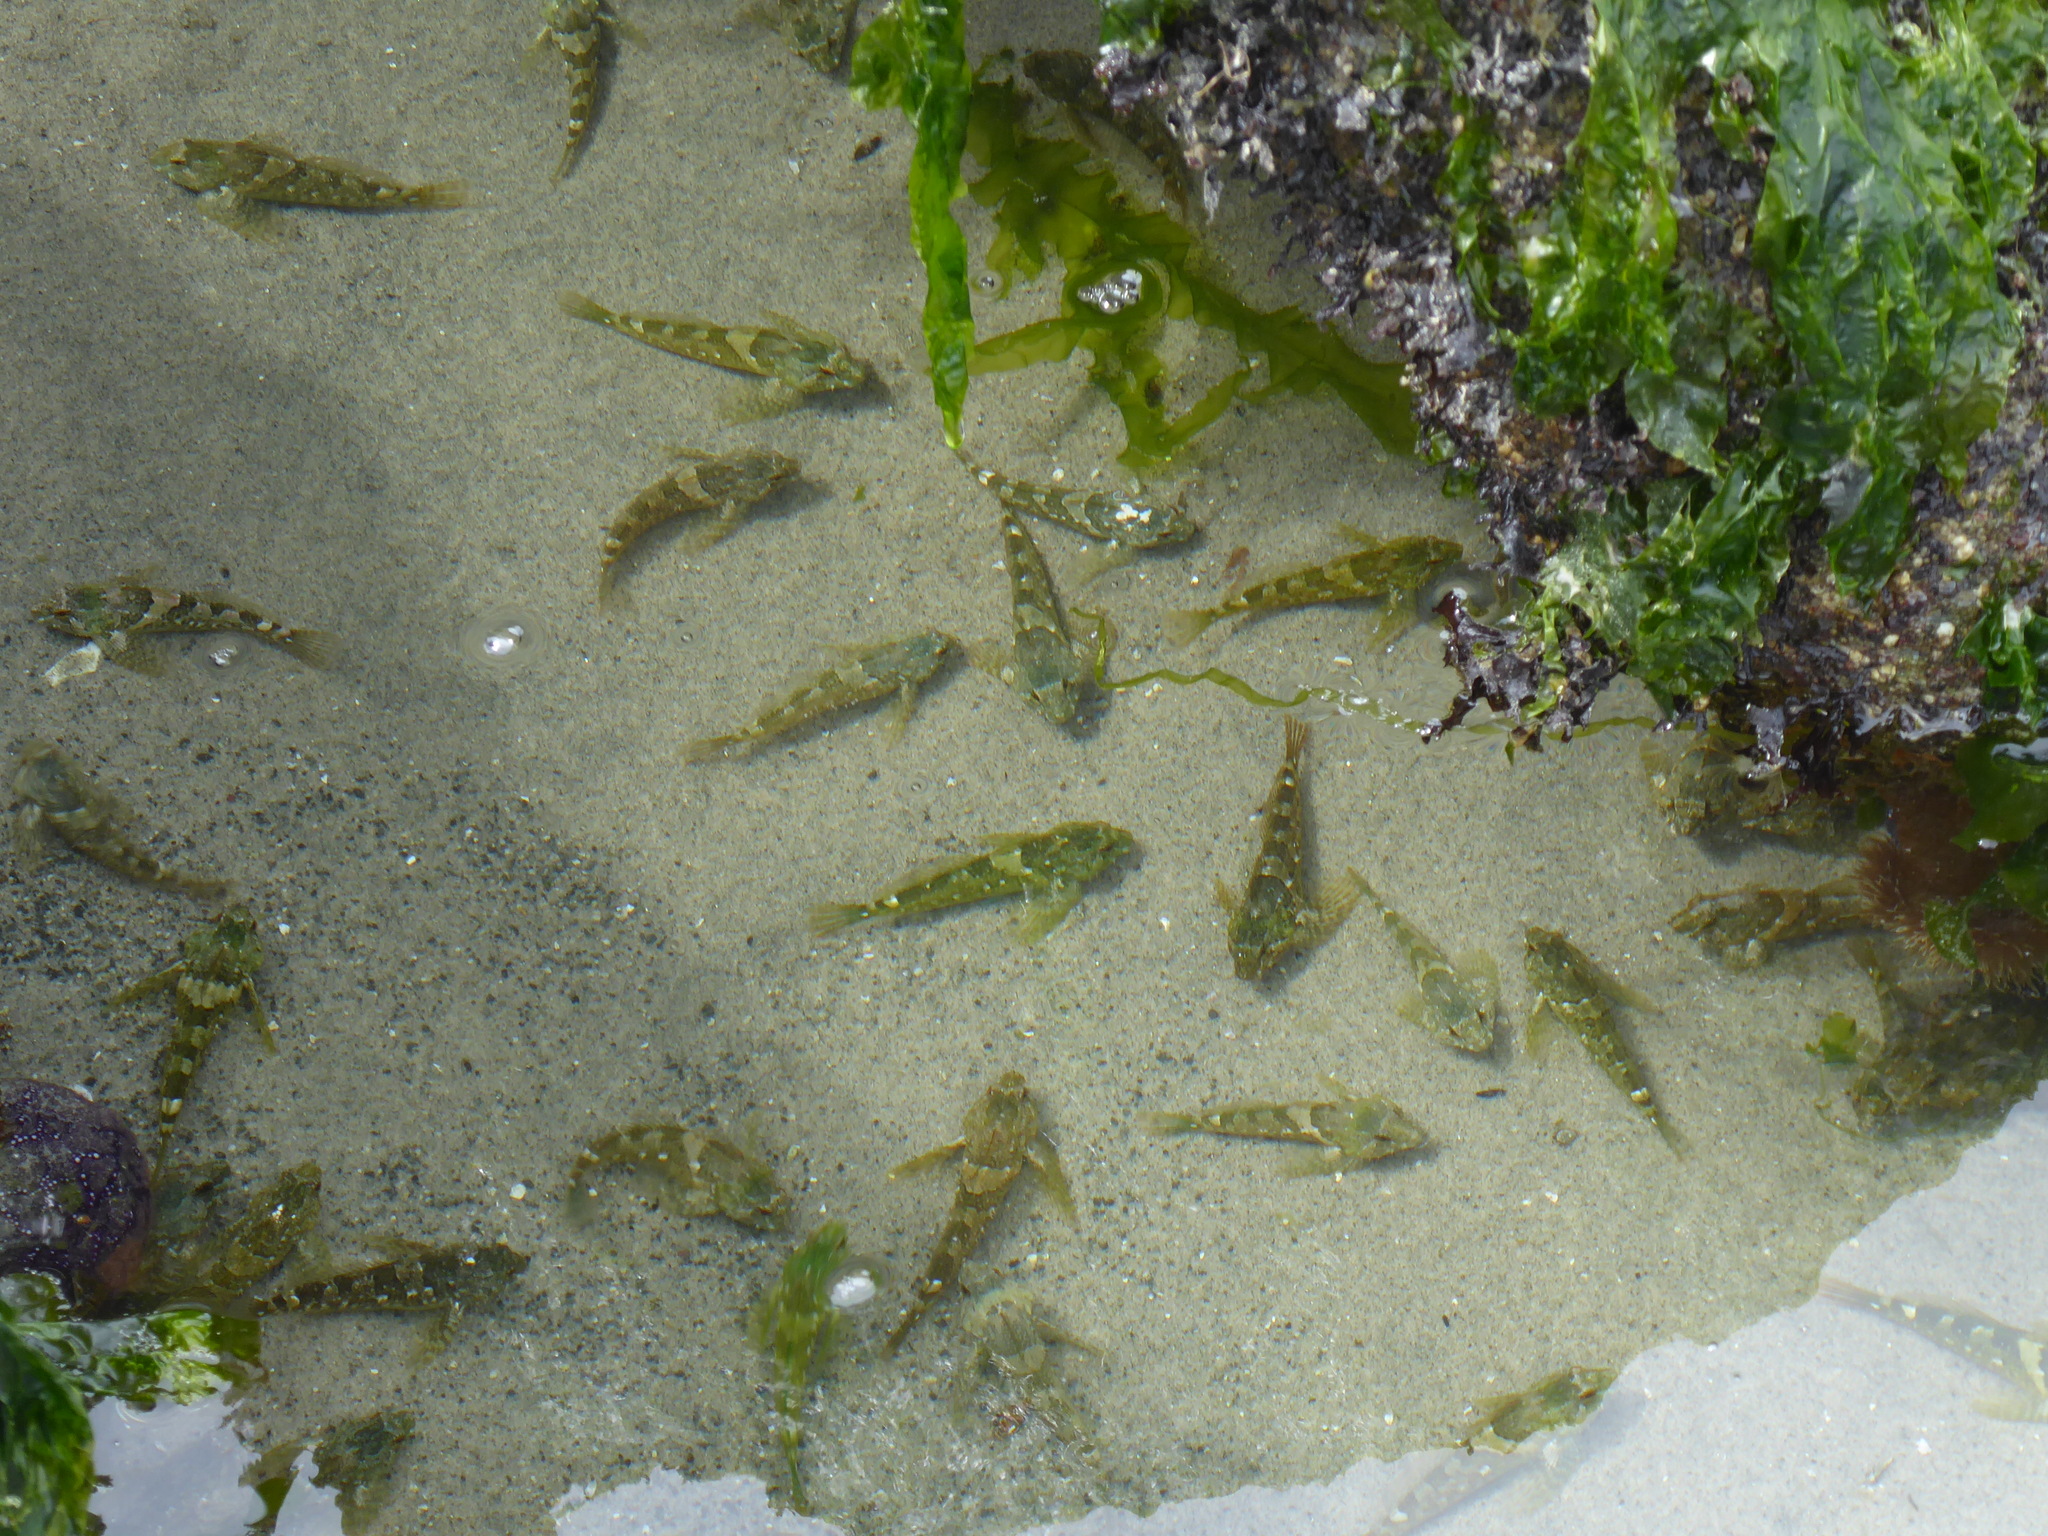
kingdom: Animalia
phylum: Chordata
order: Scorpaeniformes
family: Cottidae
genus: Oligocottus
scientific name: Oligocottus maculosus
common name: Tidepool sculpin
